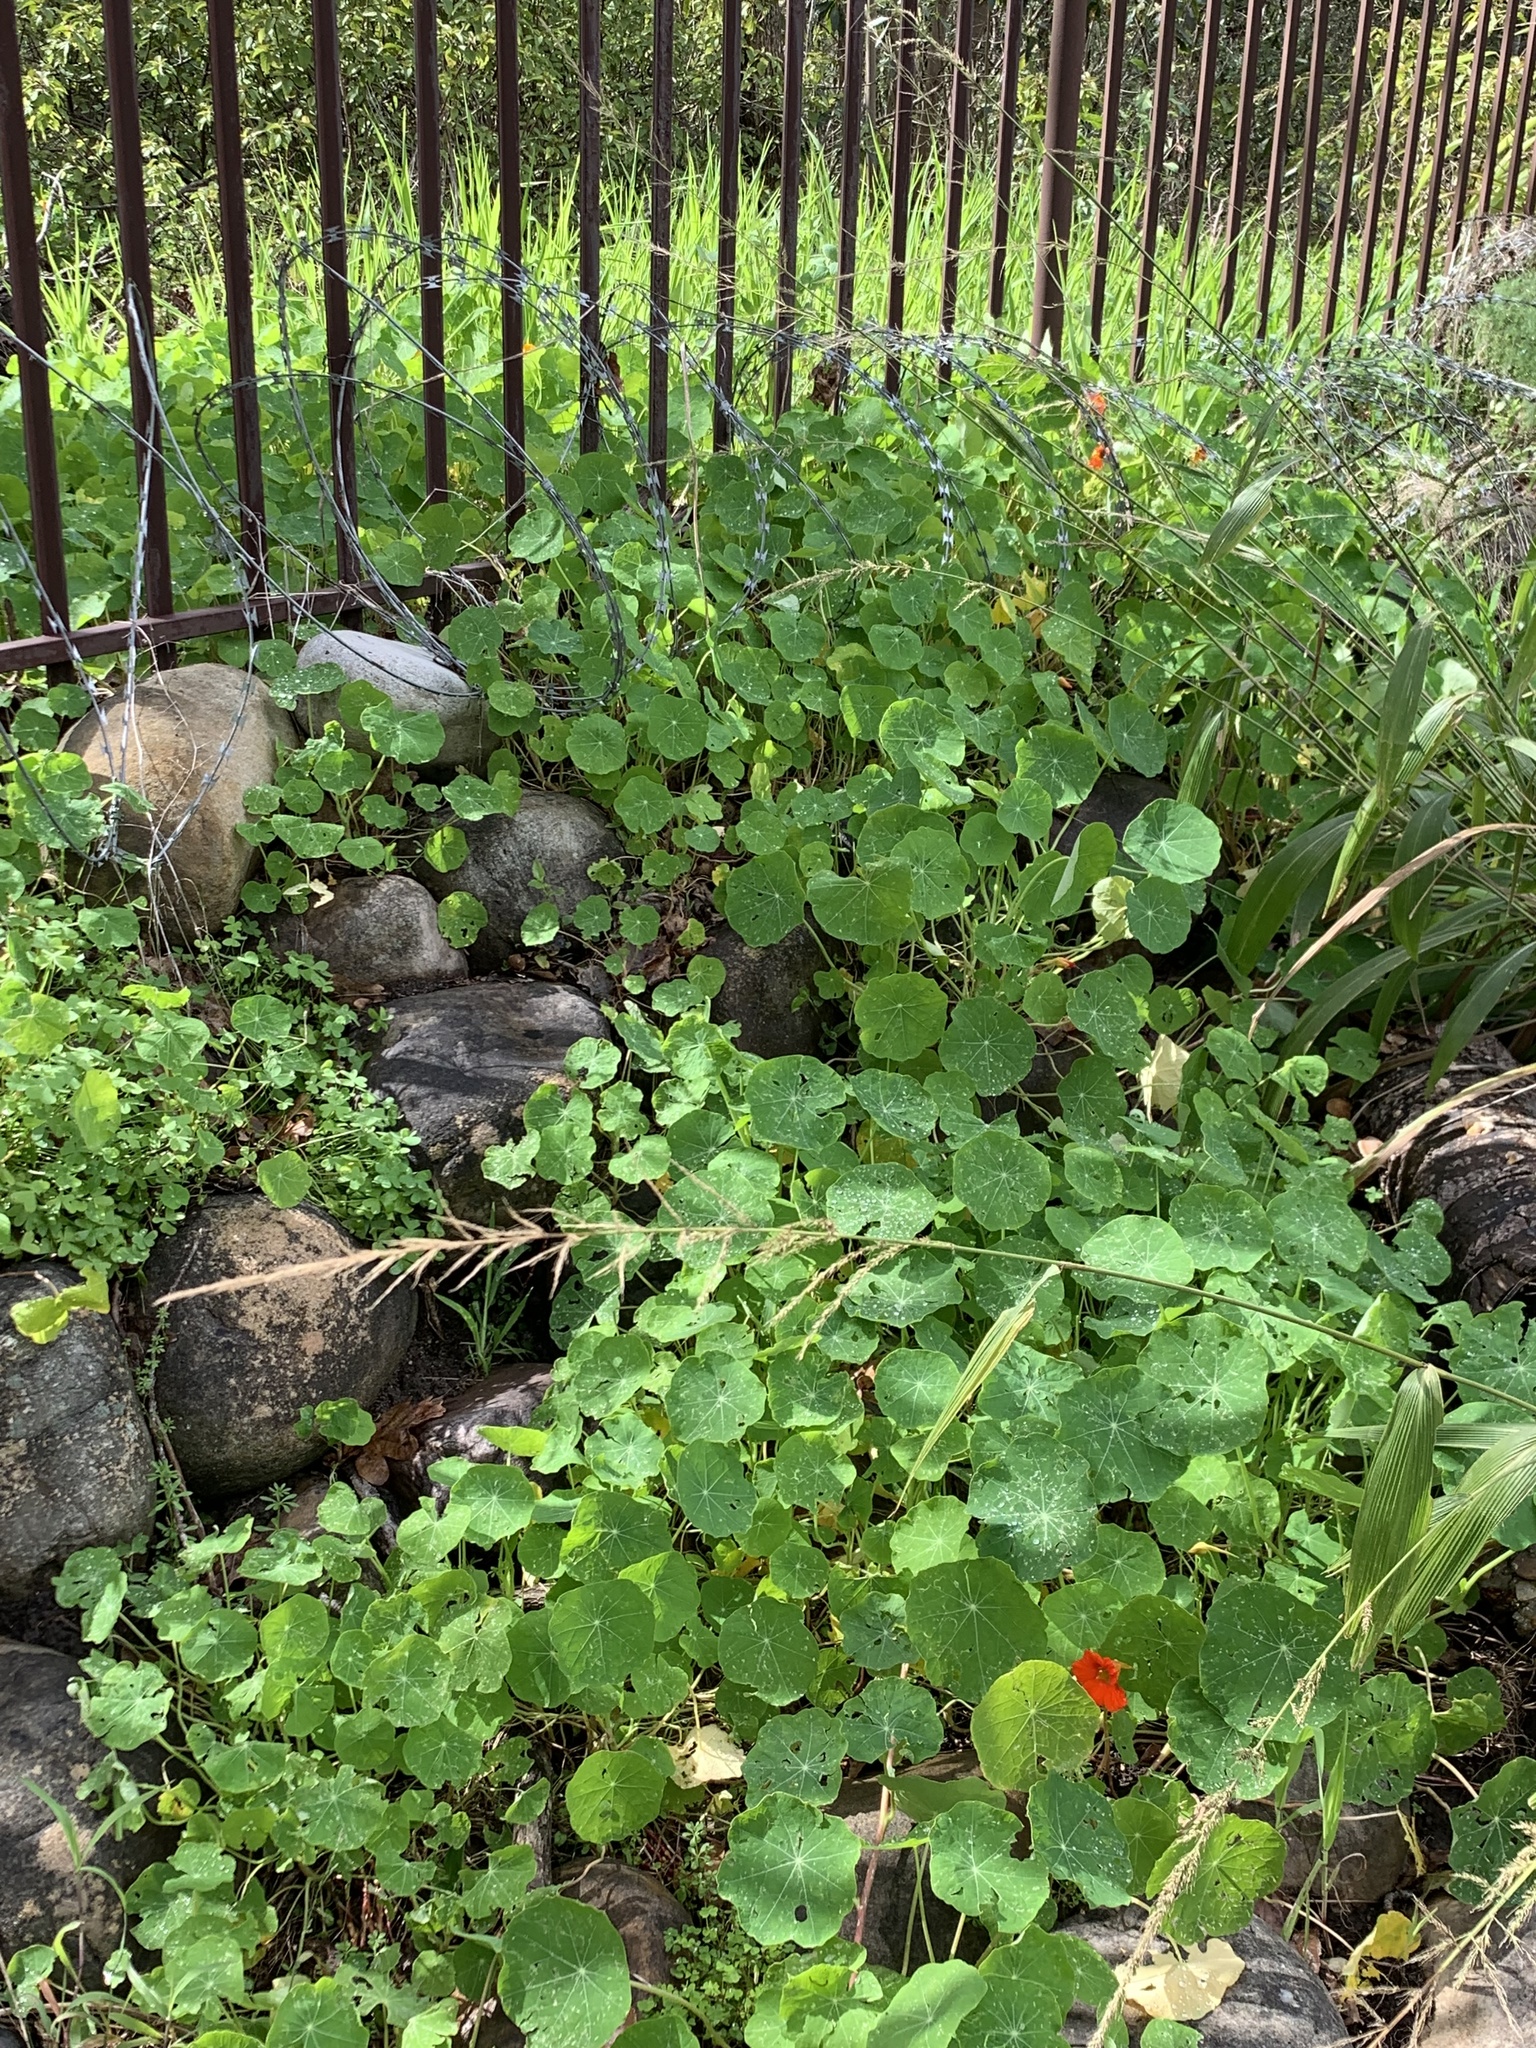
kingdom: Plantae
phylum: Tracheophyta
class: Magnoliopsida
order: Brassicales
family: Tropaeolaceae
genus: Tropaeolum
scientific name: Tropaeolum majus
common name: Nasturtium
